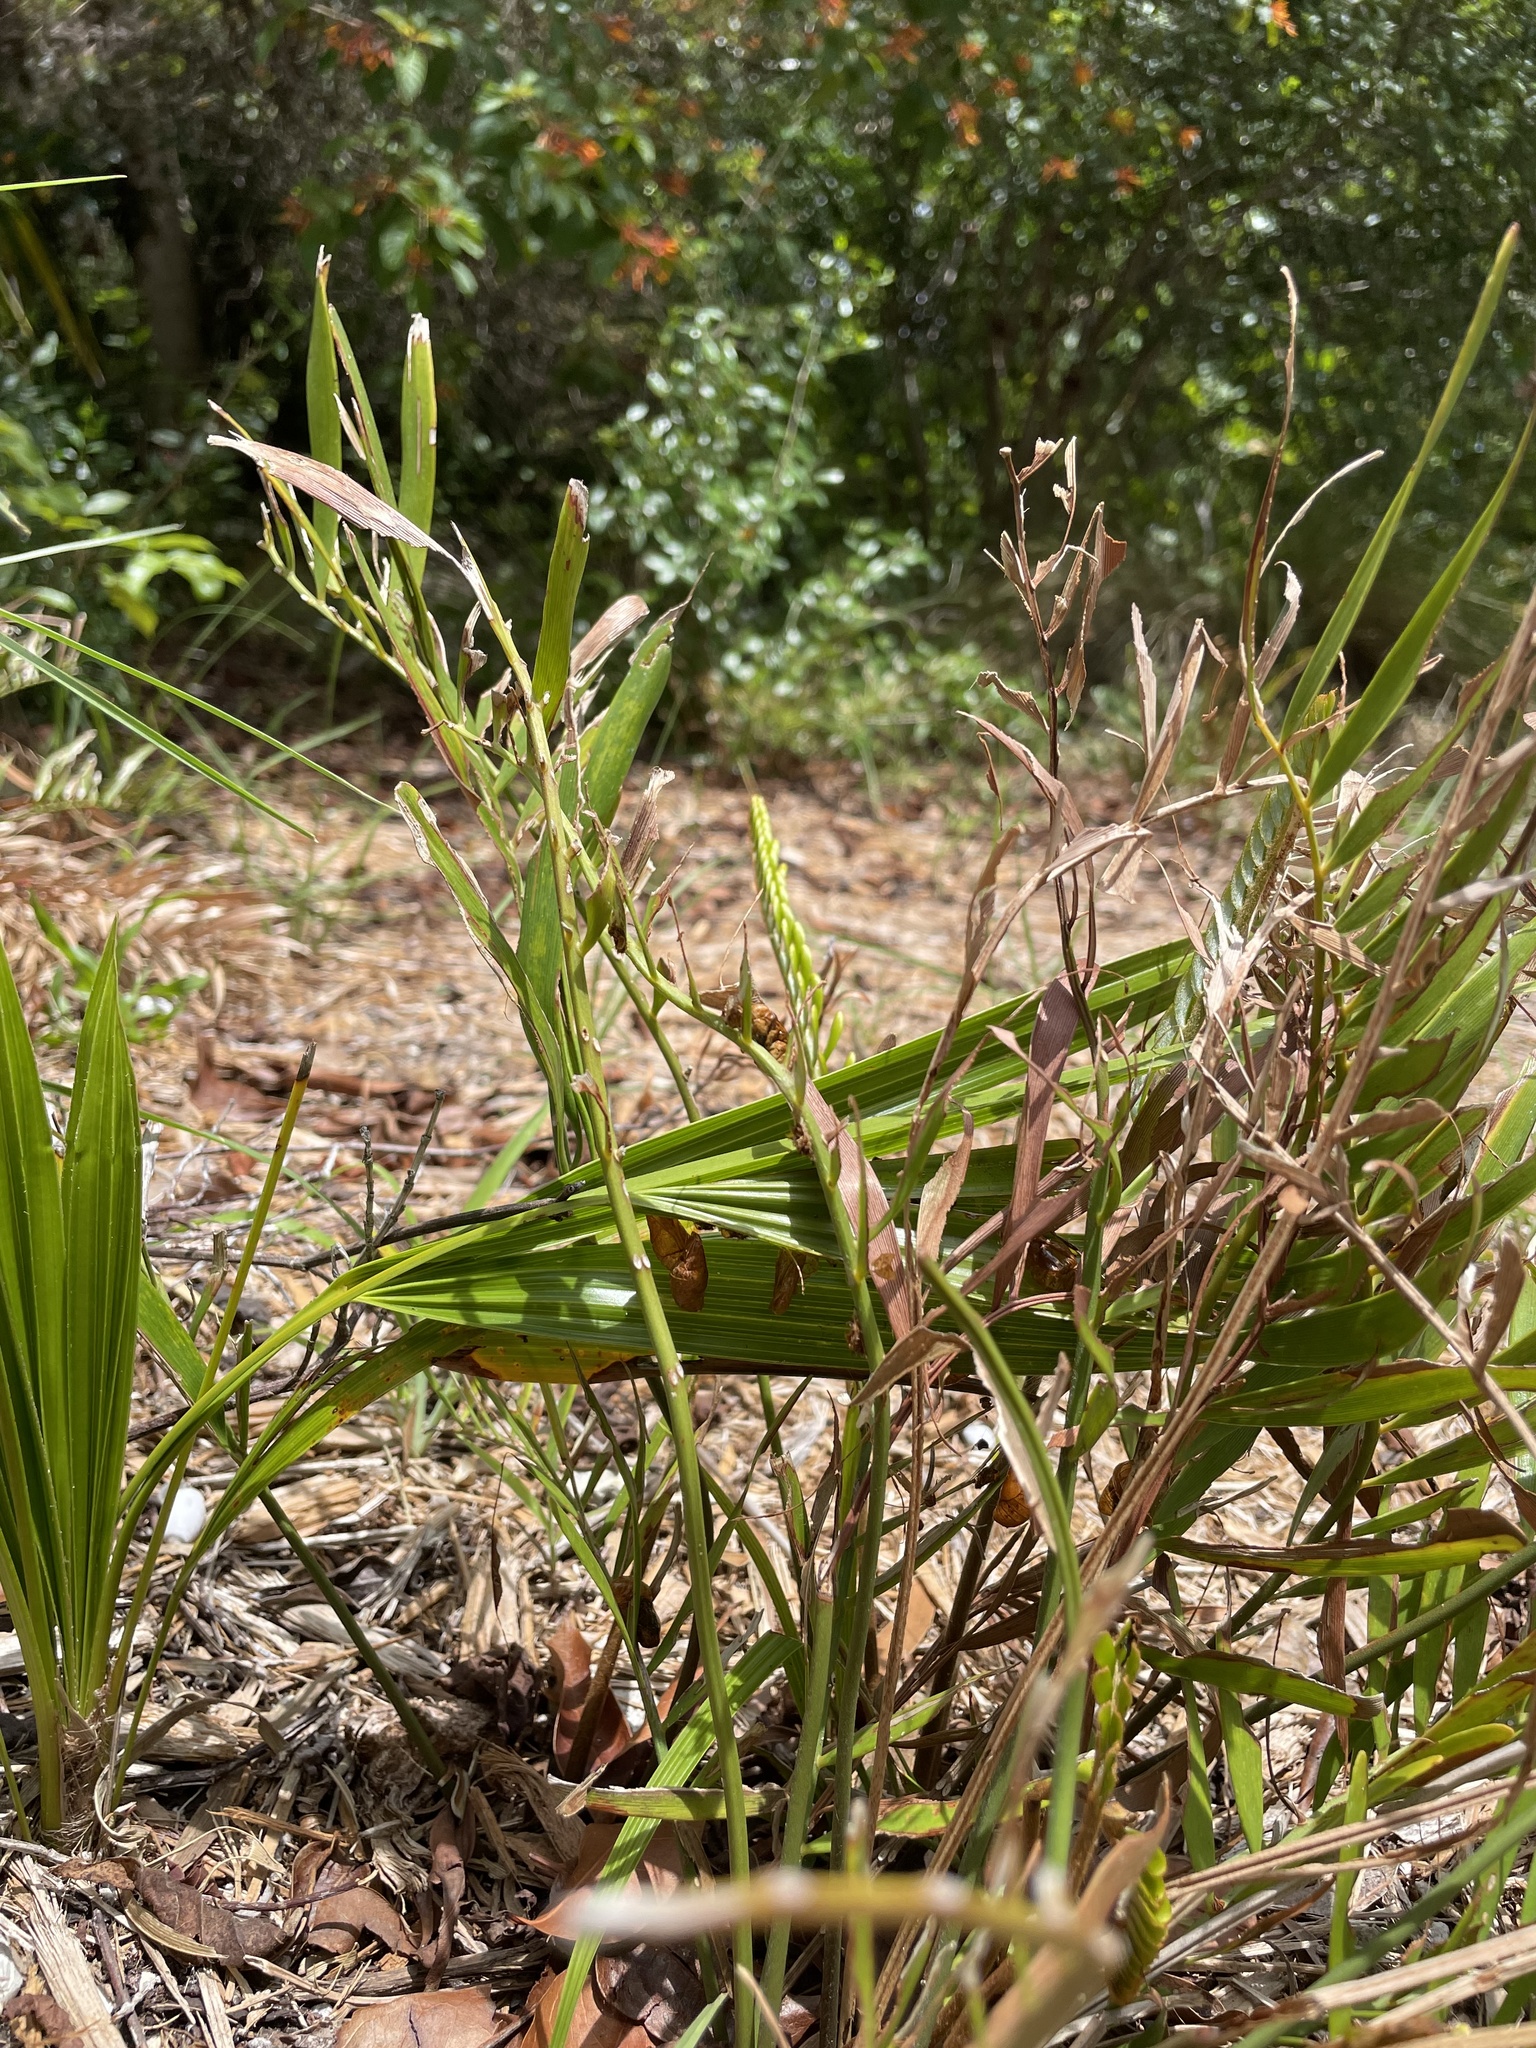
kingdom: Plantae
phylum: Tracheophyta
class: Cycadopsida
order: Cycadales
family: Zamiaceae
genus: Zamia
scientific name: Zamia integrifolia
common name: Florida arrowroot
